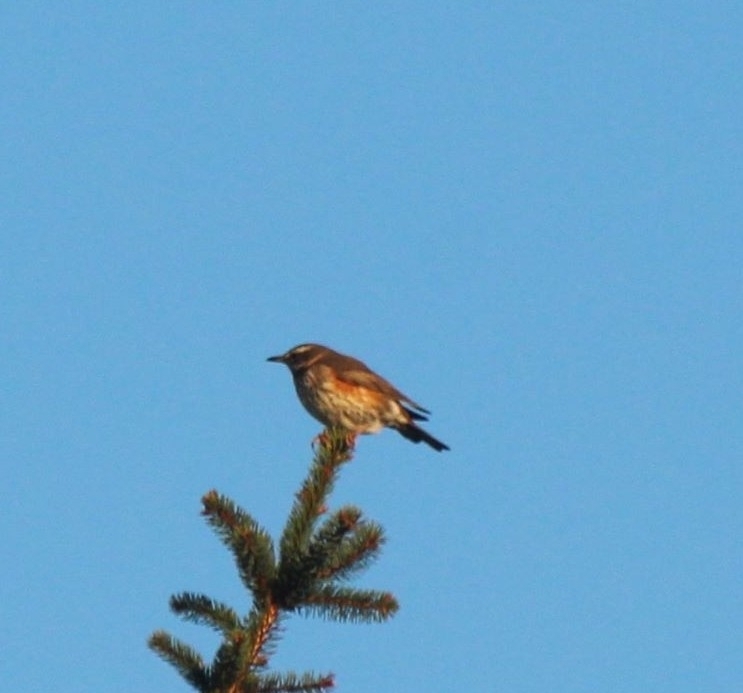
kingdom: Animalia
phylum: Chordata
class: Aves
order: Passeriformes
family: Turdidae
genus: Turdus
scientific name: Turdus iliacus
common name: Redwing
